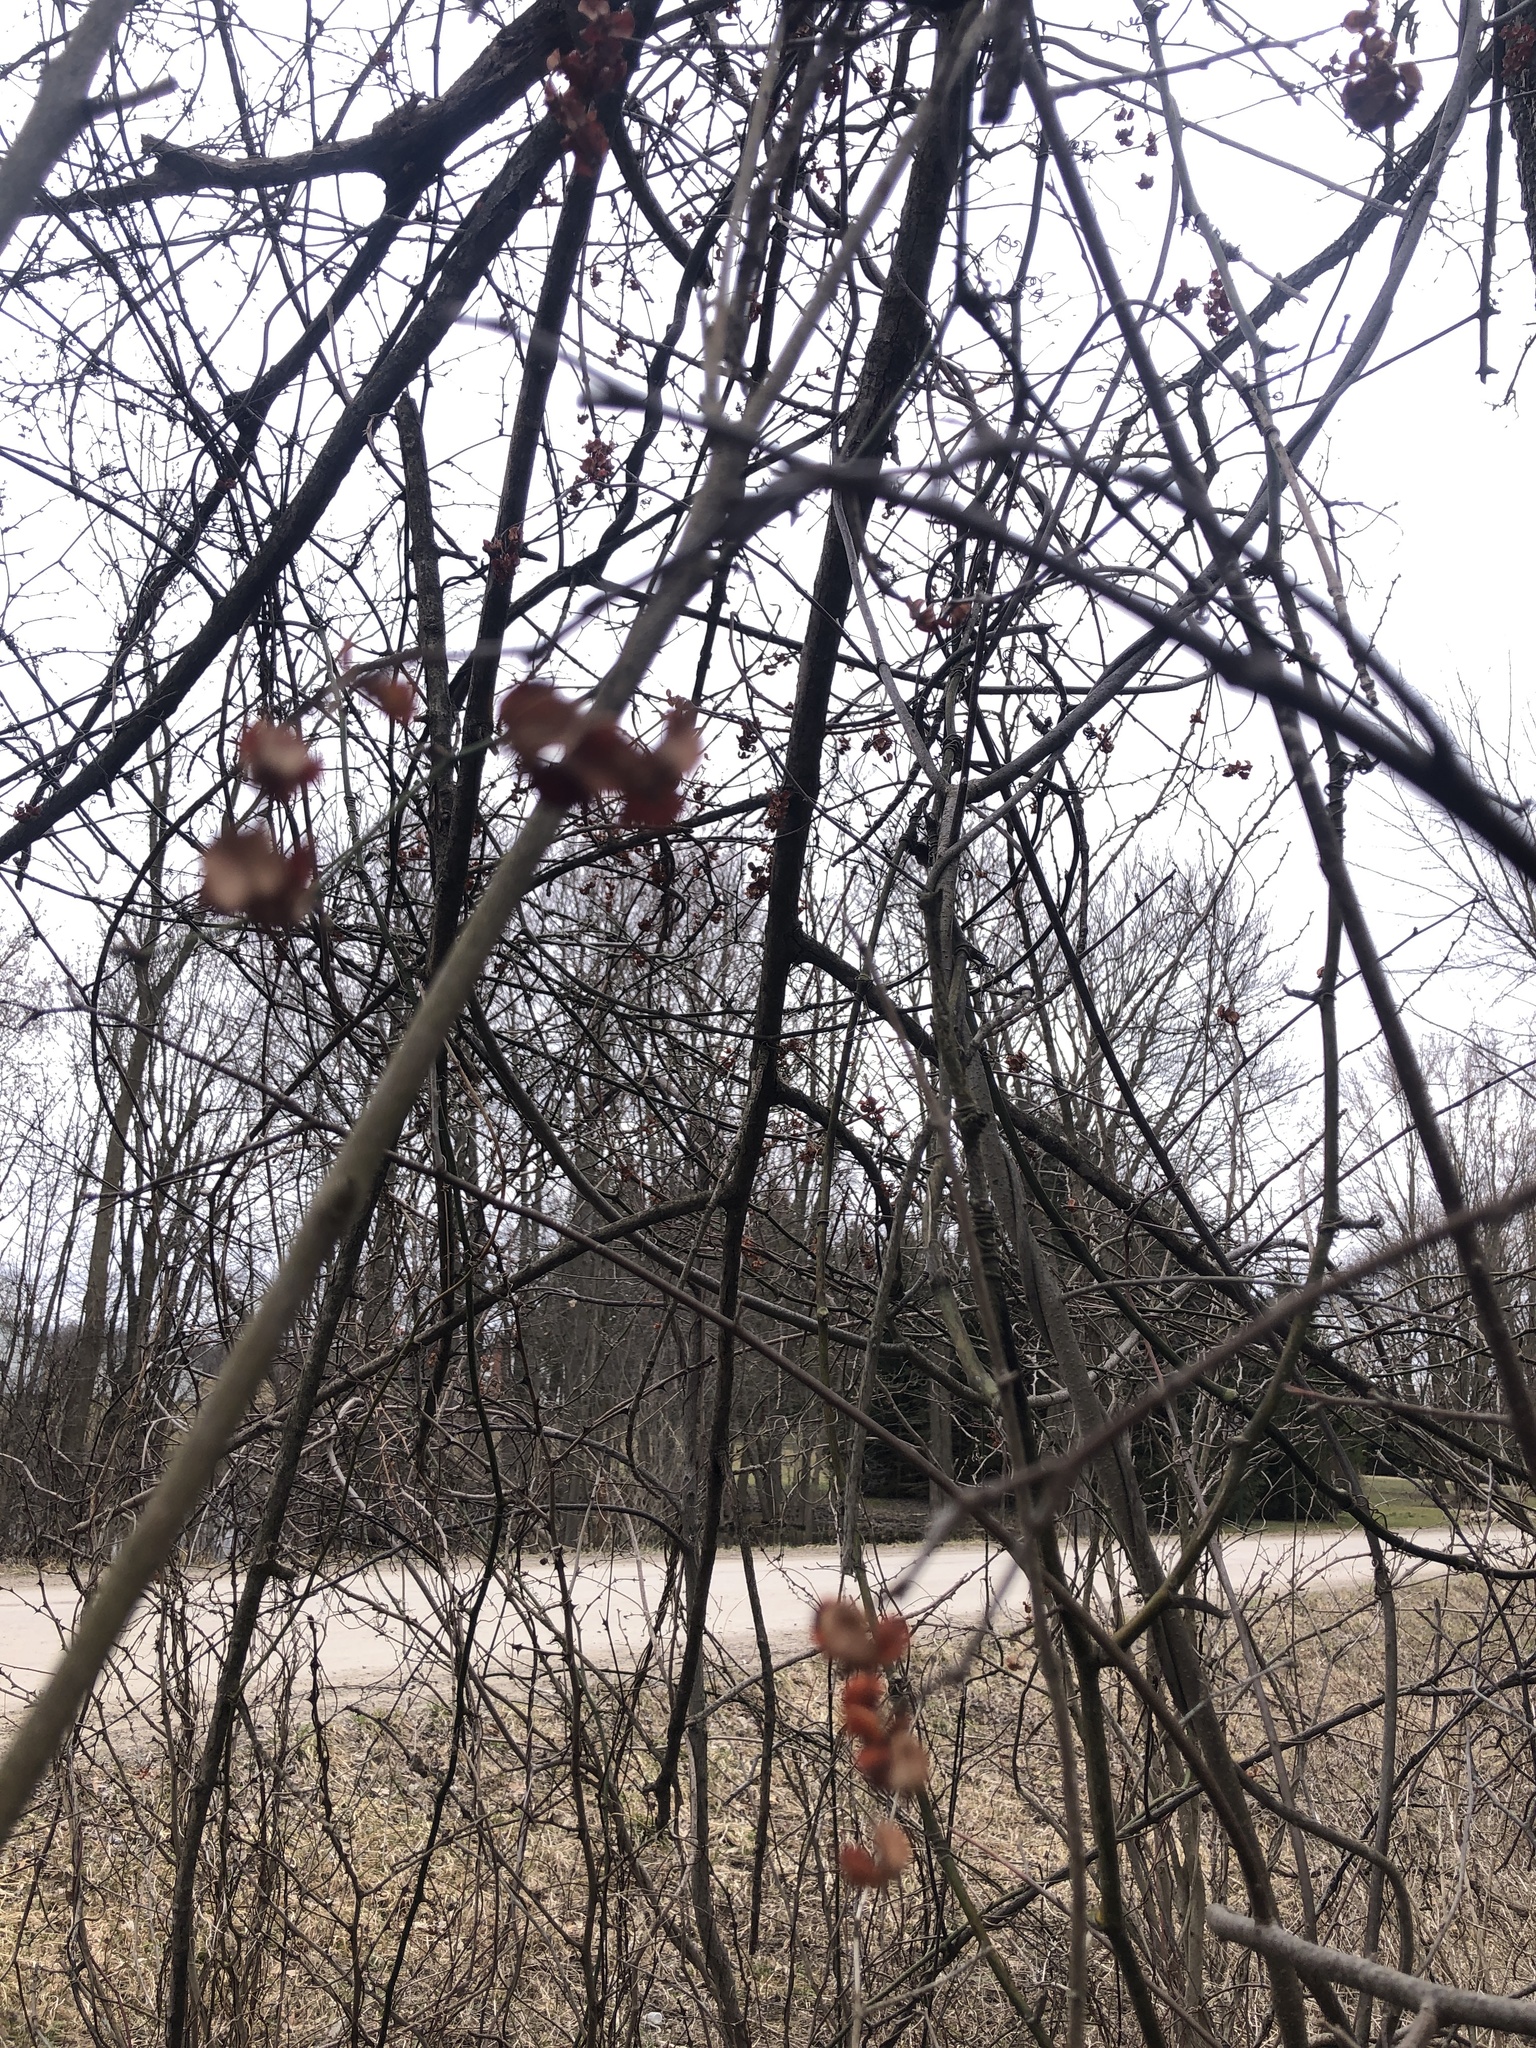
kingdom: Plantae
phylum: Tracheophyta
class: Magnoliopsida
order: Celastrales
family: Celastraceae
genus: Celastrus
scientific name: Celastrus scandens
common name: American bittersweet
